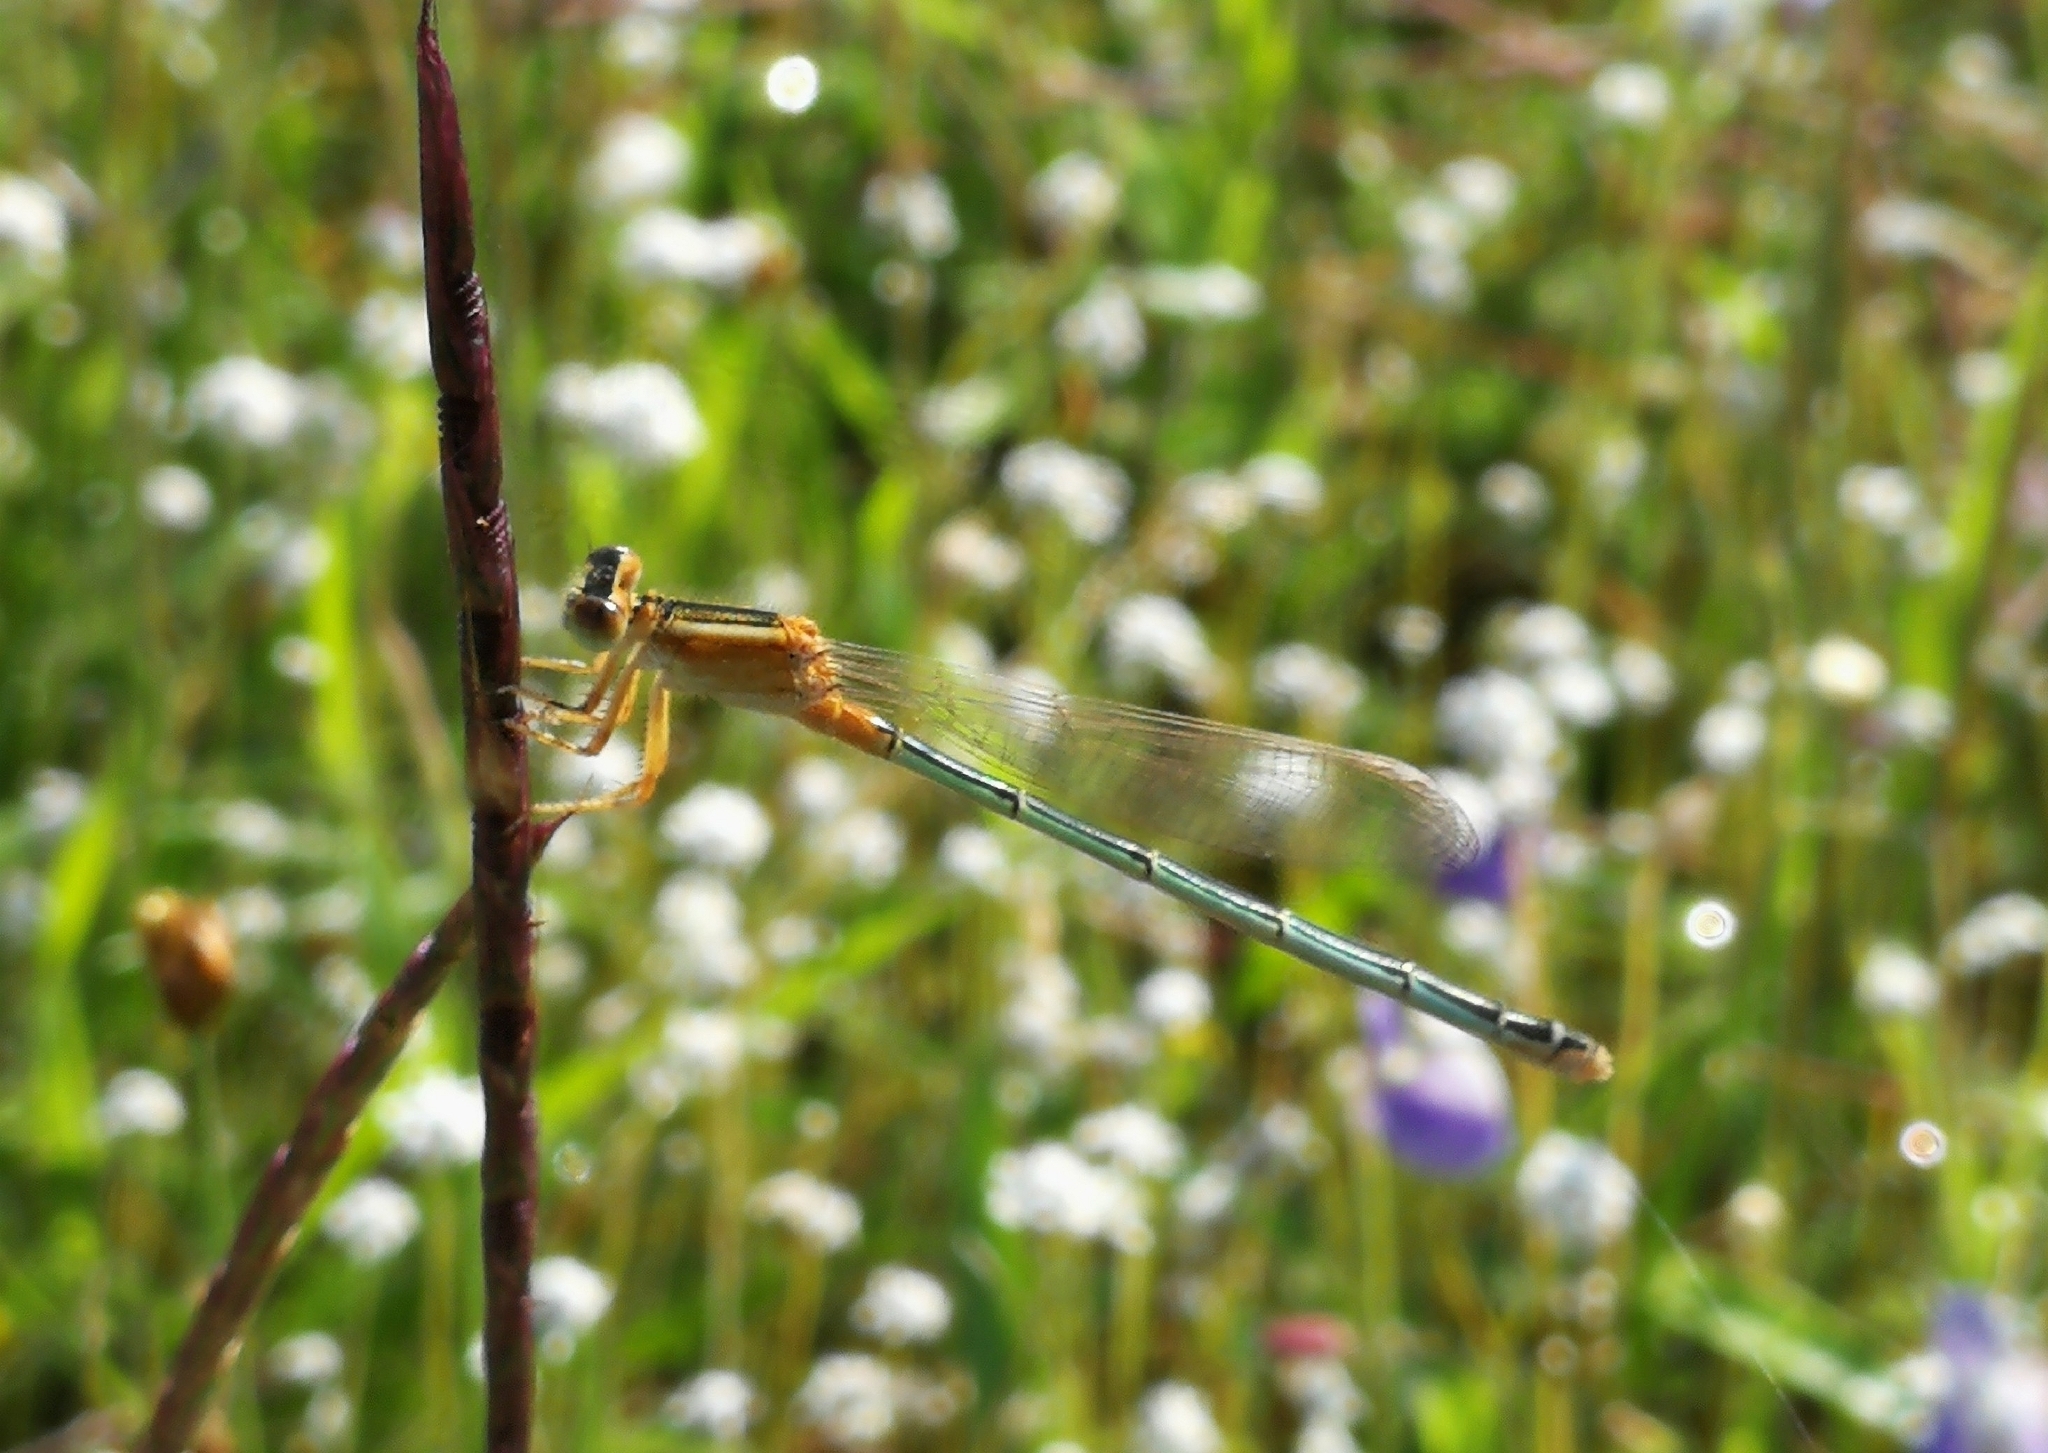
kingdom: Animalia
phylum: Arthropoda
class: Insecta
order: Odonata
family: Coenagrionidae
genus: Ischnura
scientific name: Ischnura senegalensis
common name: Tropical bluetail
